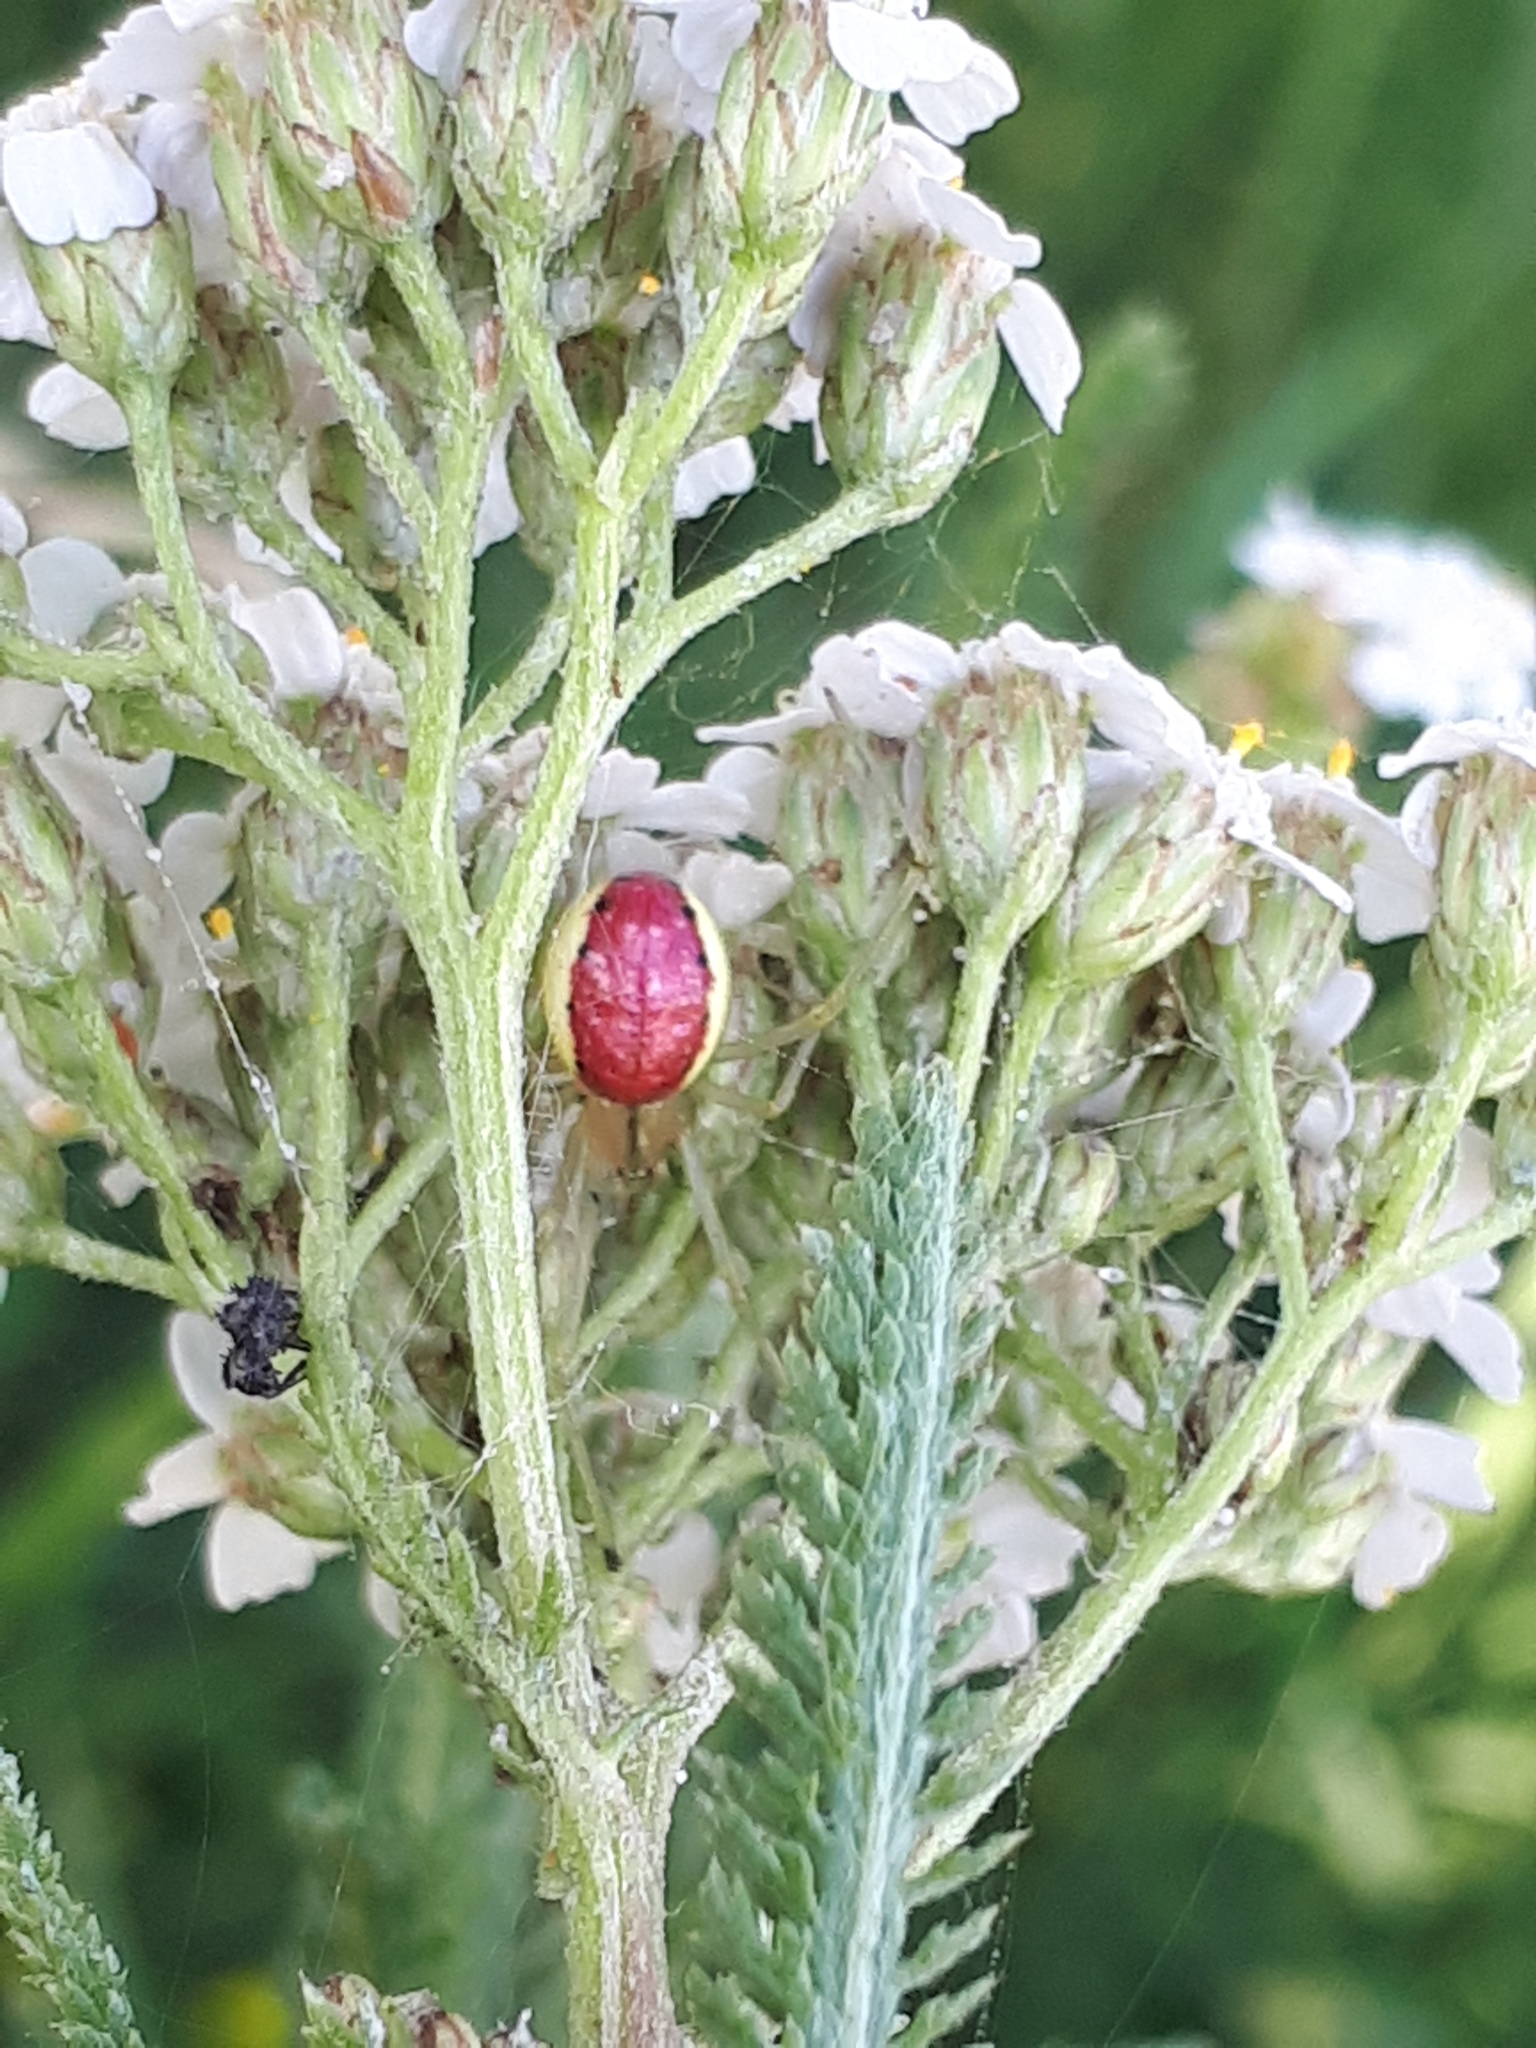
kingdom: Animalia
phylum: Arthropoda
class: Arachnida
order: Araneae
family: Theridiidae
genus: Enoplognatha
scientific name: Enoplognatha ovata
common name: Common candy-striped spider
